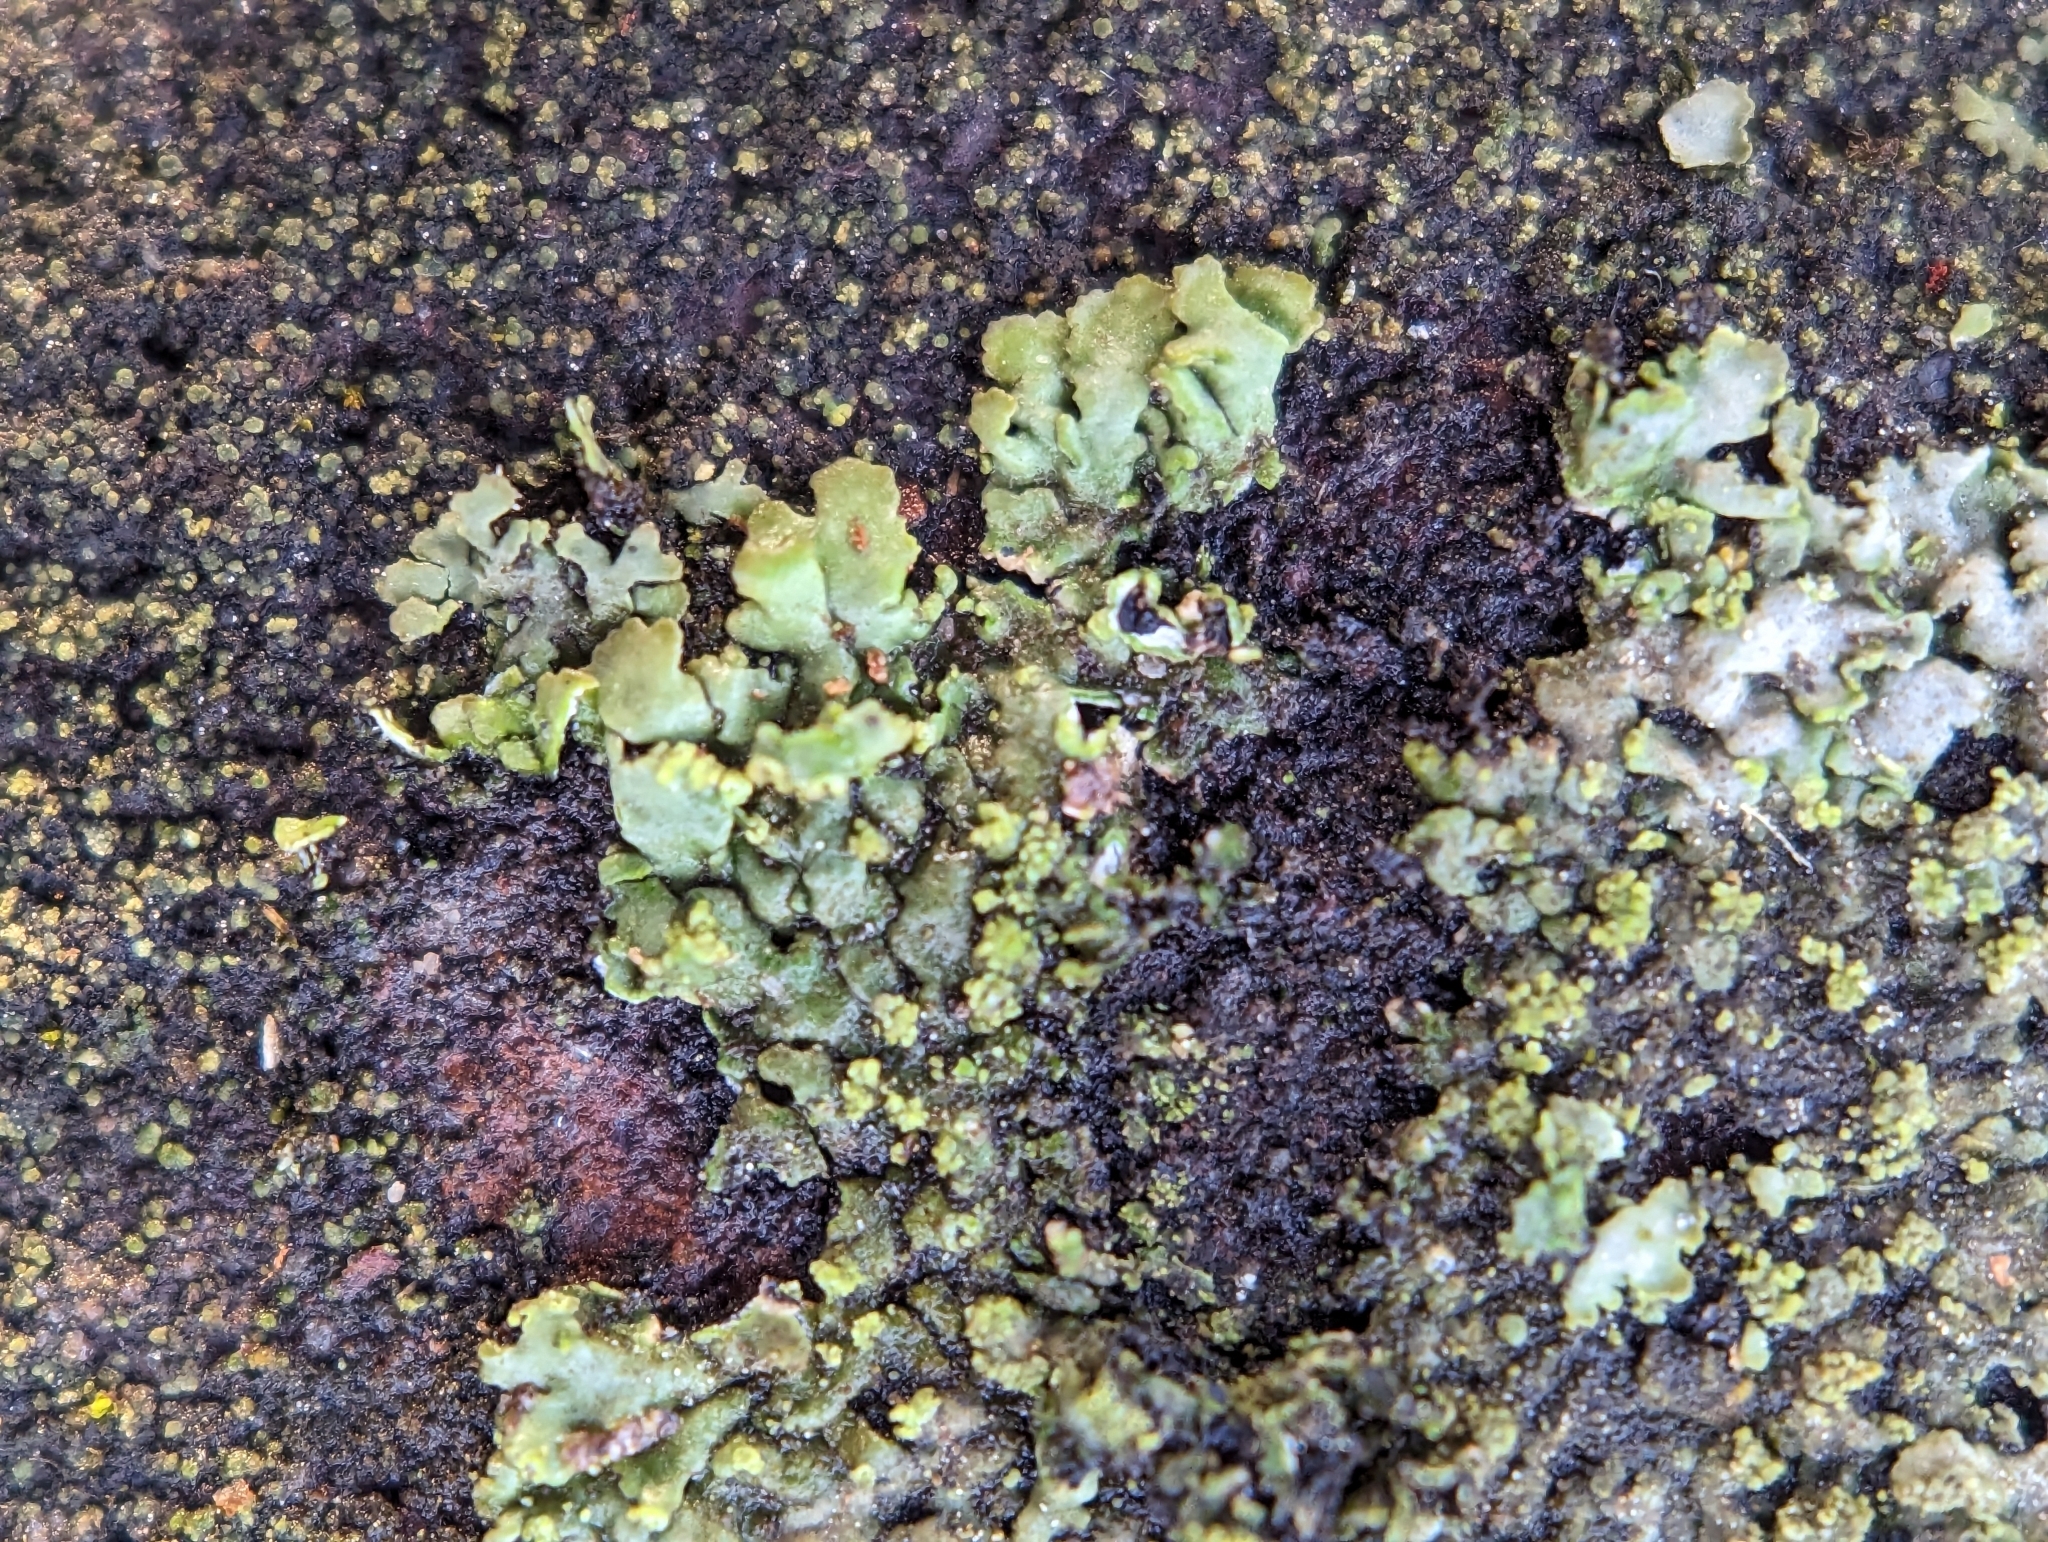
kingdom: Fungi
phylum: Ascomycota
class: Lecanoromycetes
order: Caliciales
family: Physciaceae
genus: Phaeophyscia
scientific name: Phaeophyscia adiastola
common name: Powder-tipped shadow lichen
